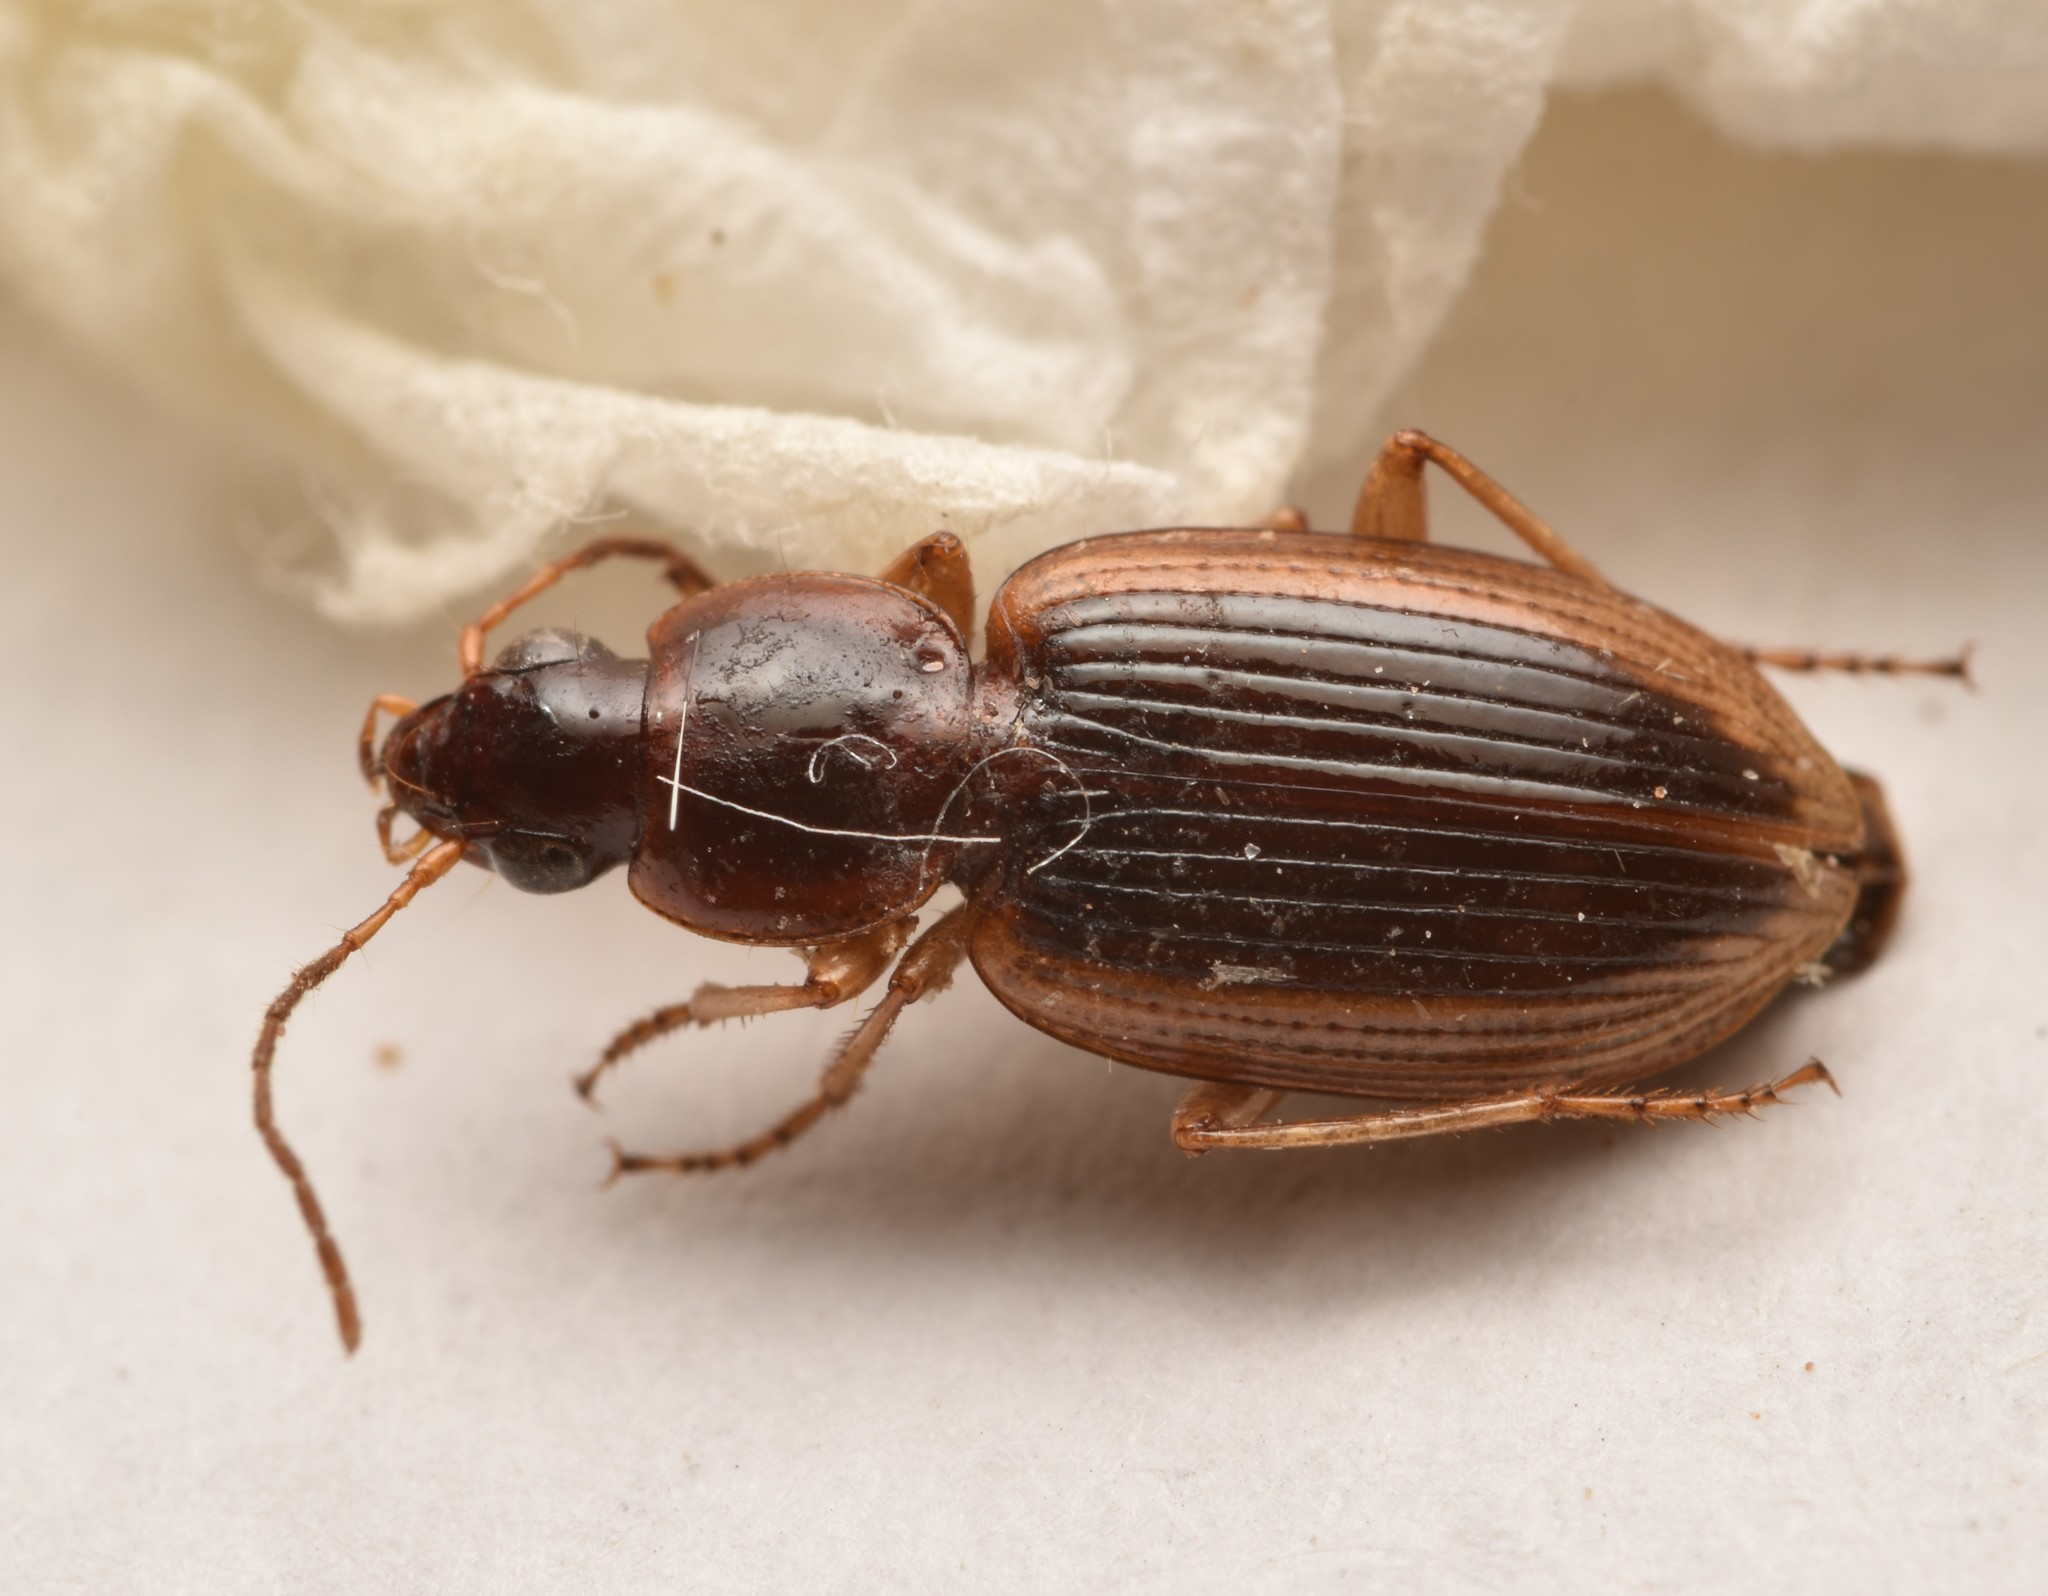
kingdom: Animalia
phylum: Arthropoda
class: Insecta
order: Coleoptera
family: Carabidae
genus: Agonum
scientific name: Agonum pallipes
